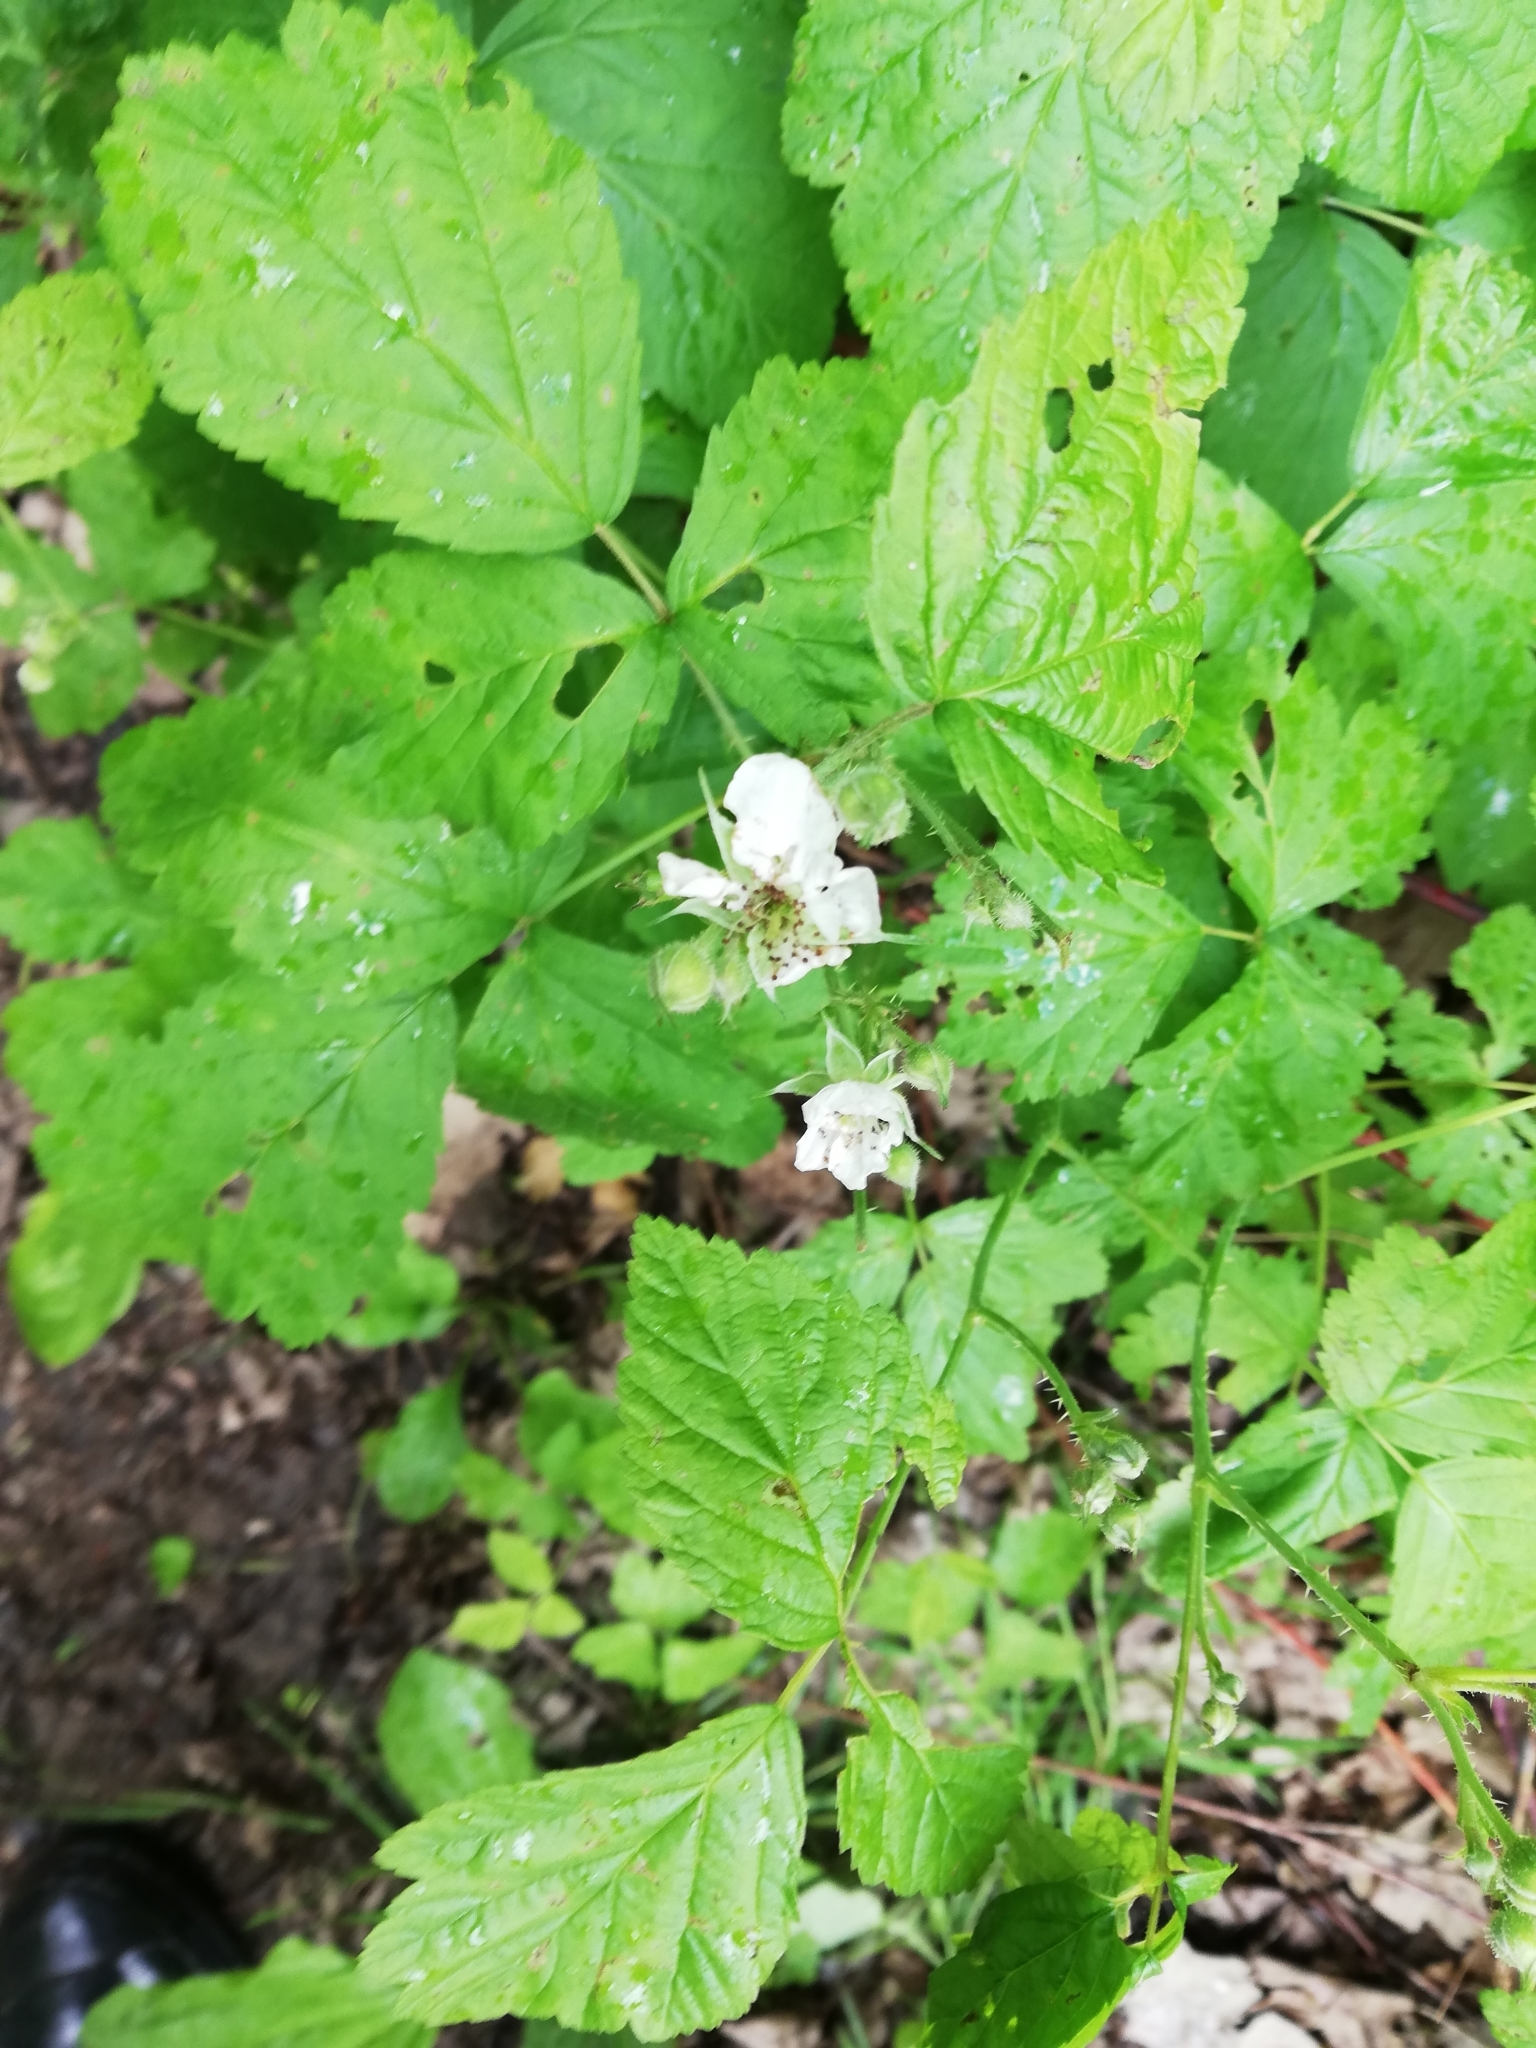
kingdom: Plantae
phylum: Tracheophyta
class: Magnoliopsida
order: Rosales
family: Rosaceae
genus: Rubus
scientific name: Rubus caesius
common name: Dewberry
